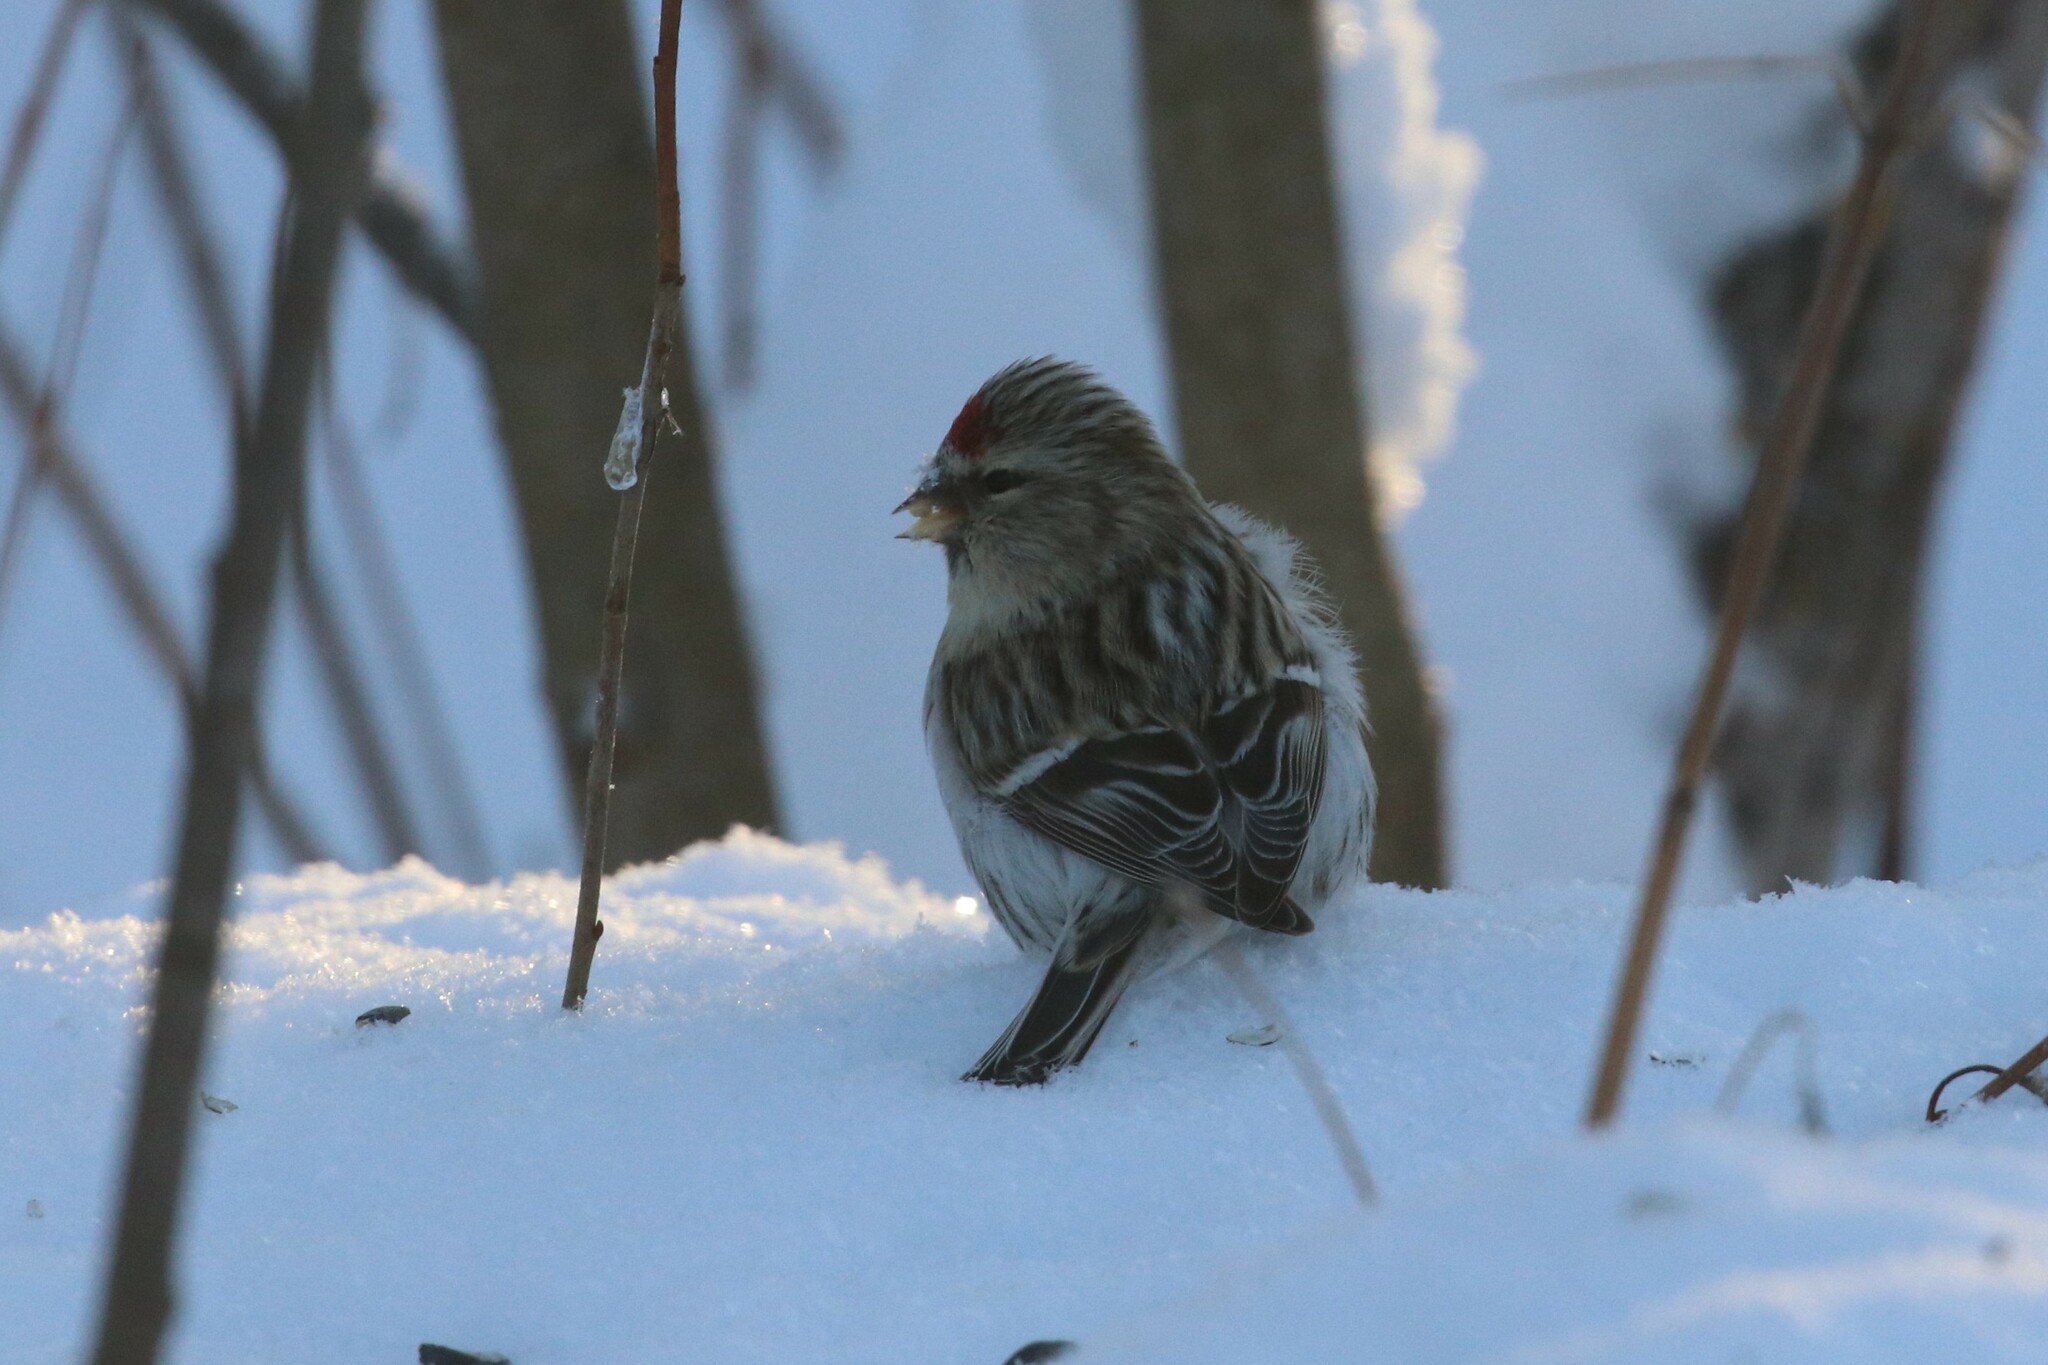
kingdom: Animalia
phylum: Chordata
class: Aves
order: Passeriformes
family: Fringillidae
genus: Acanthis
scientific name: Acanthis flammea
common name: Common redpoll
